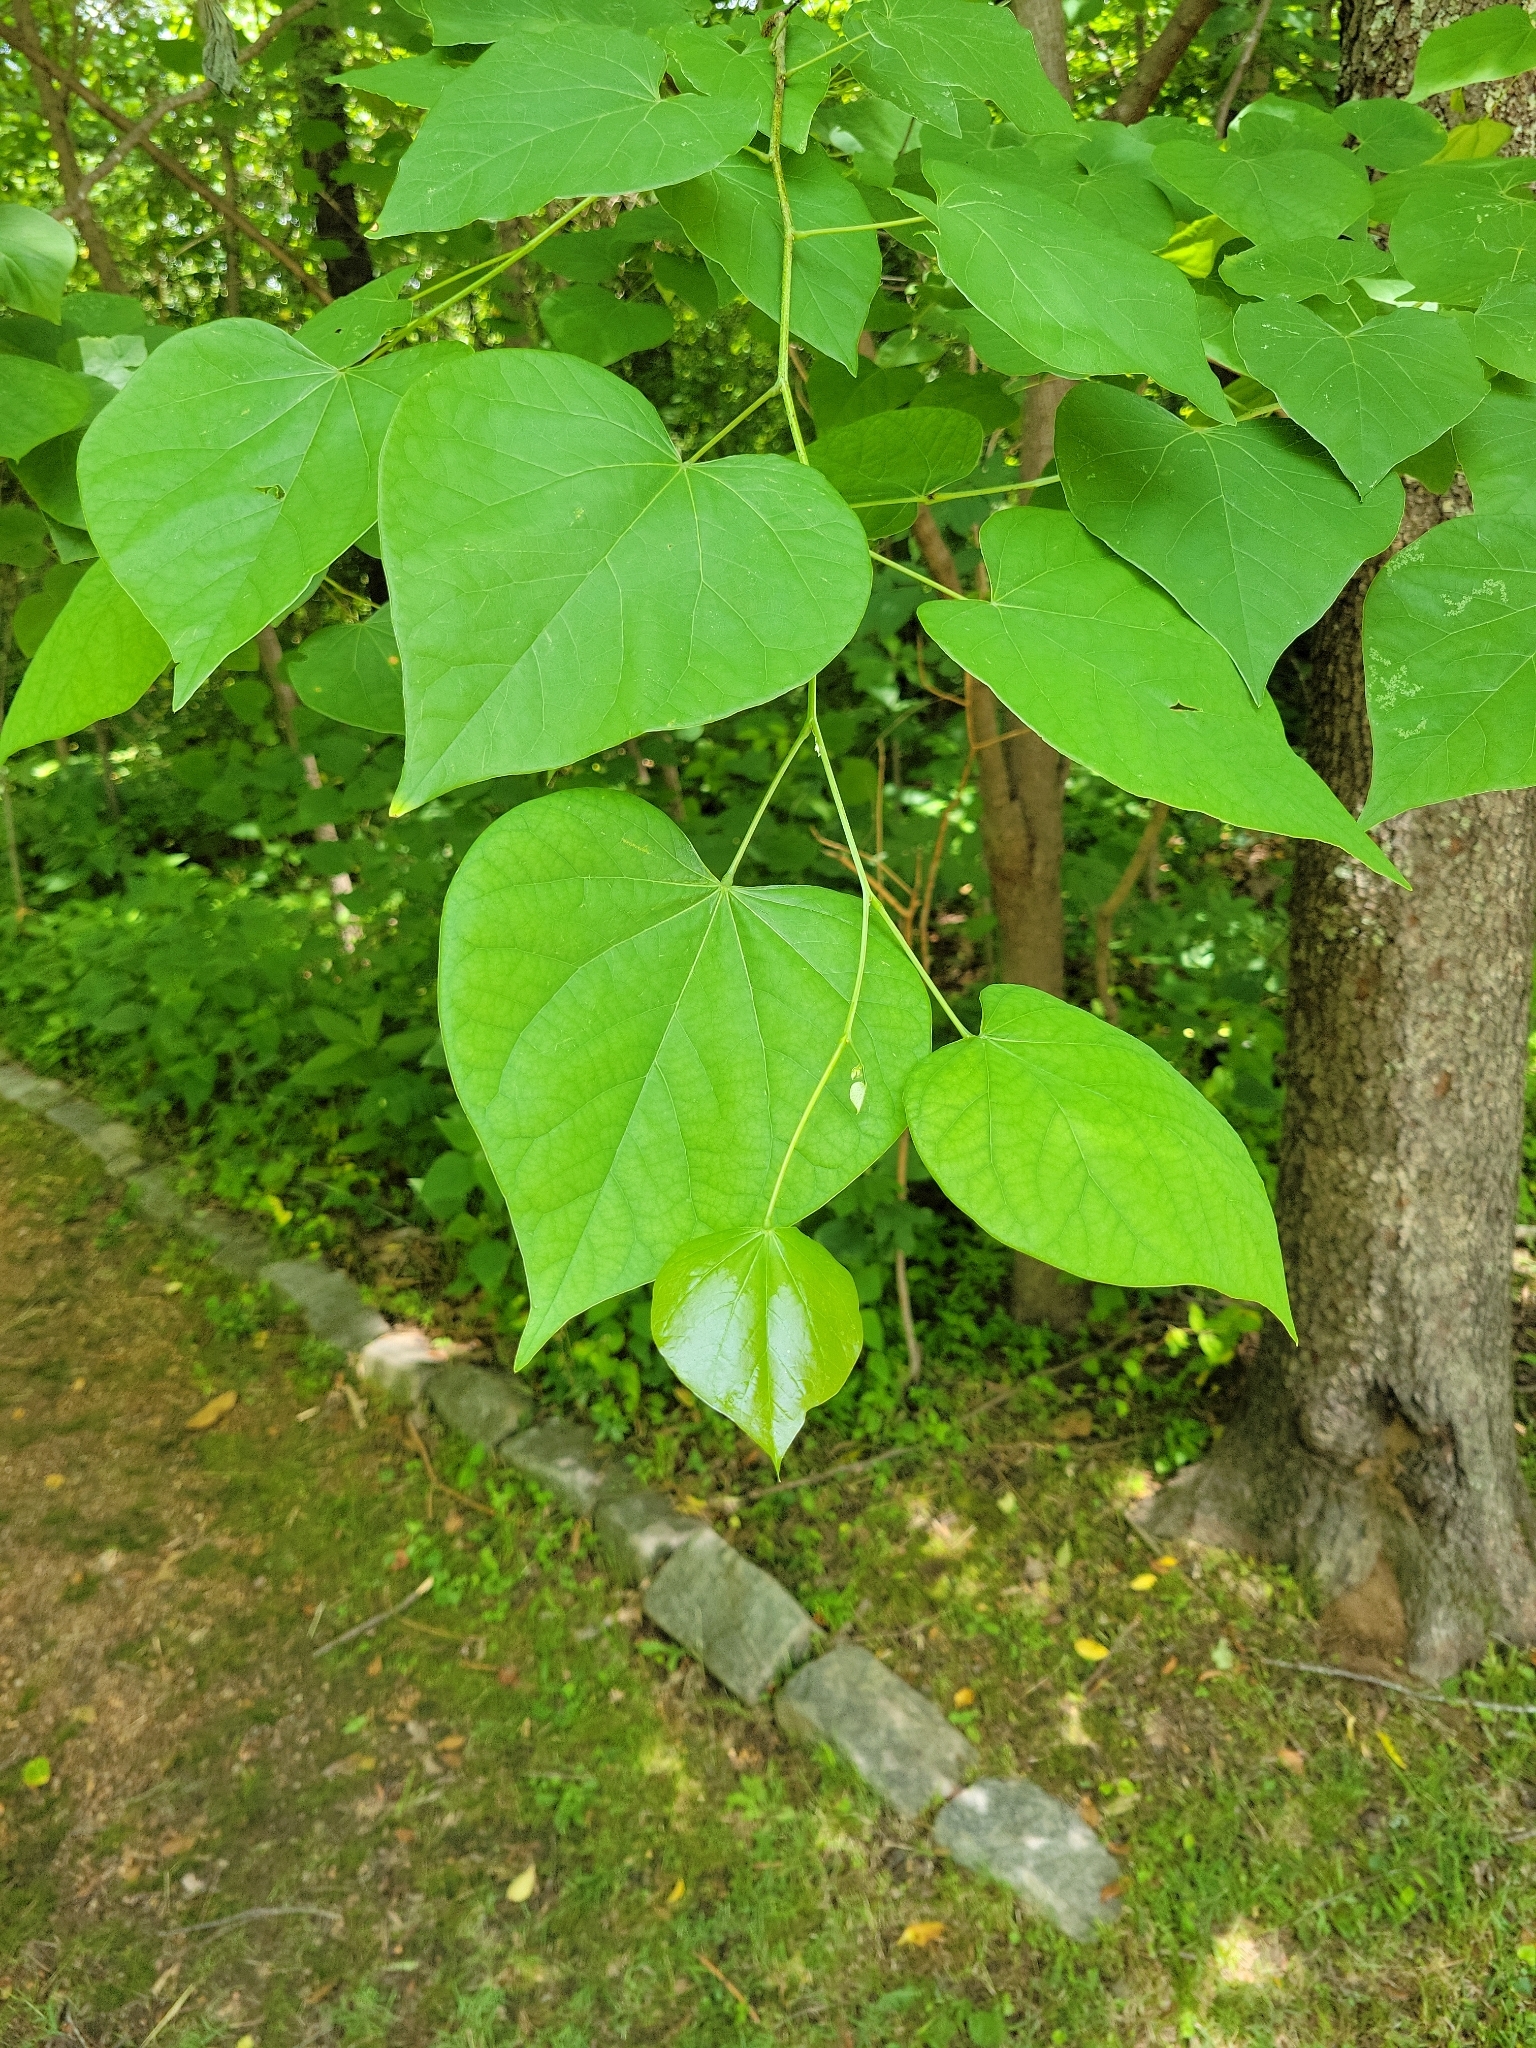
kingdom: Plantae
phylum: Tracheophyta
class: Magnoliopsida
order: Fabales
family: Fabaceae
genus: Cercis
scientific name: Cercis canadensis
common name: Eastern redbud
